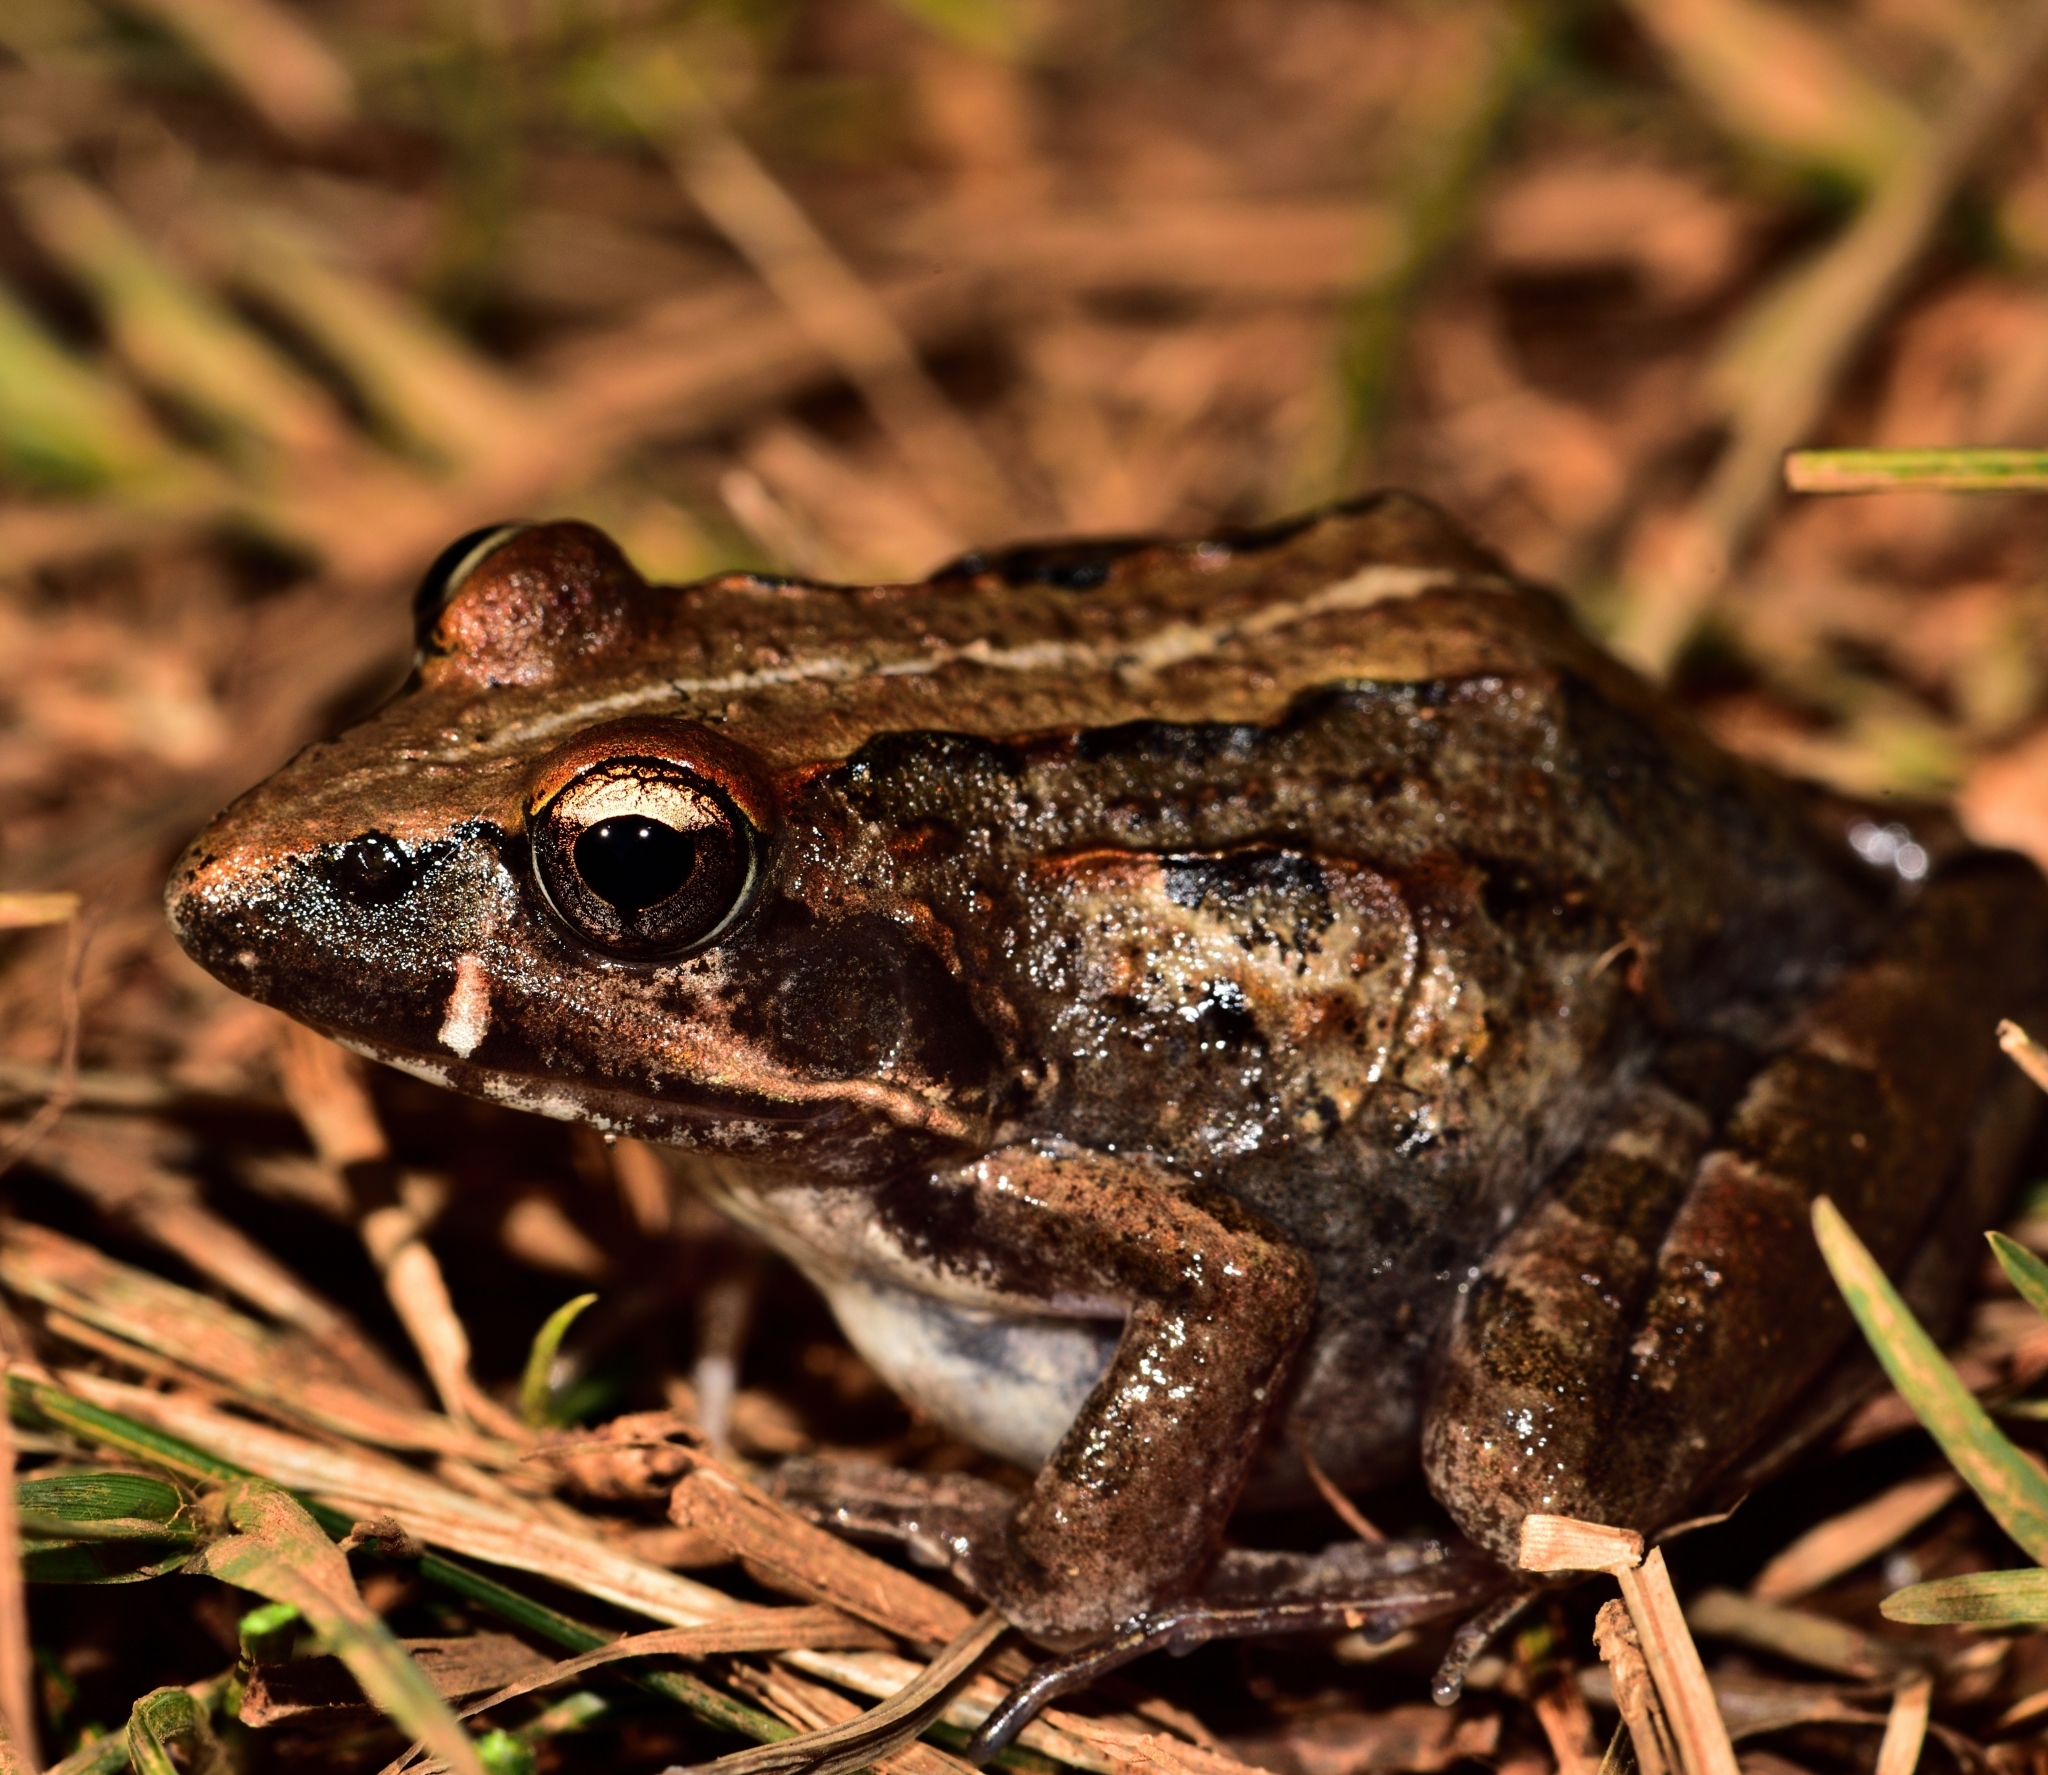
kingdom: Animalia
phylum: Chordata
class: Amphibia
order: Anura
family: Pyxicephalidae
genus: Strongylopus
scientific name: Strongylopus grayii
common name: Gray's stream frog
